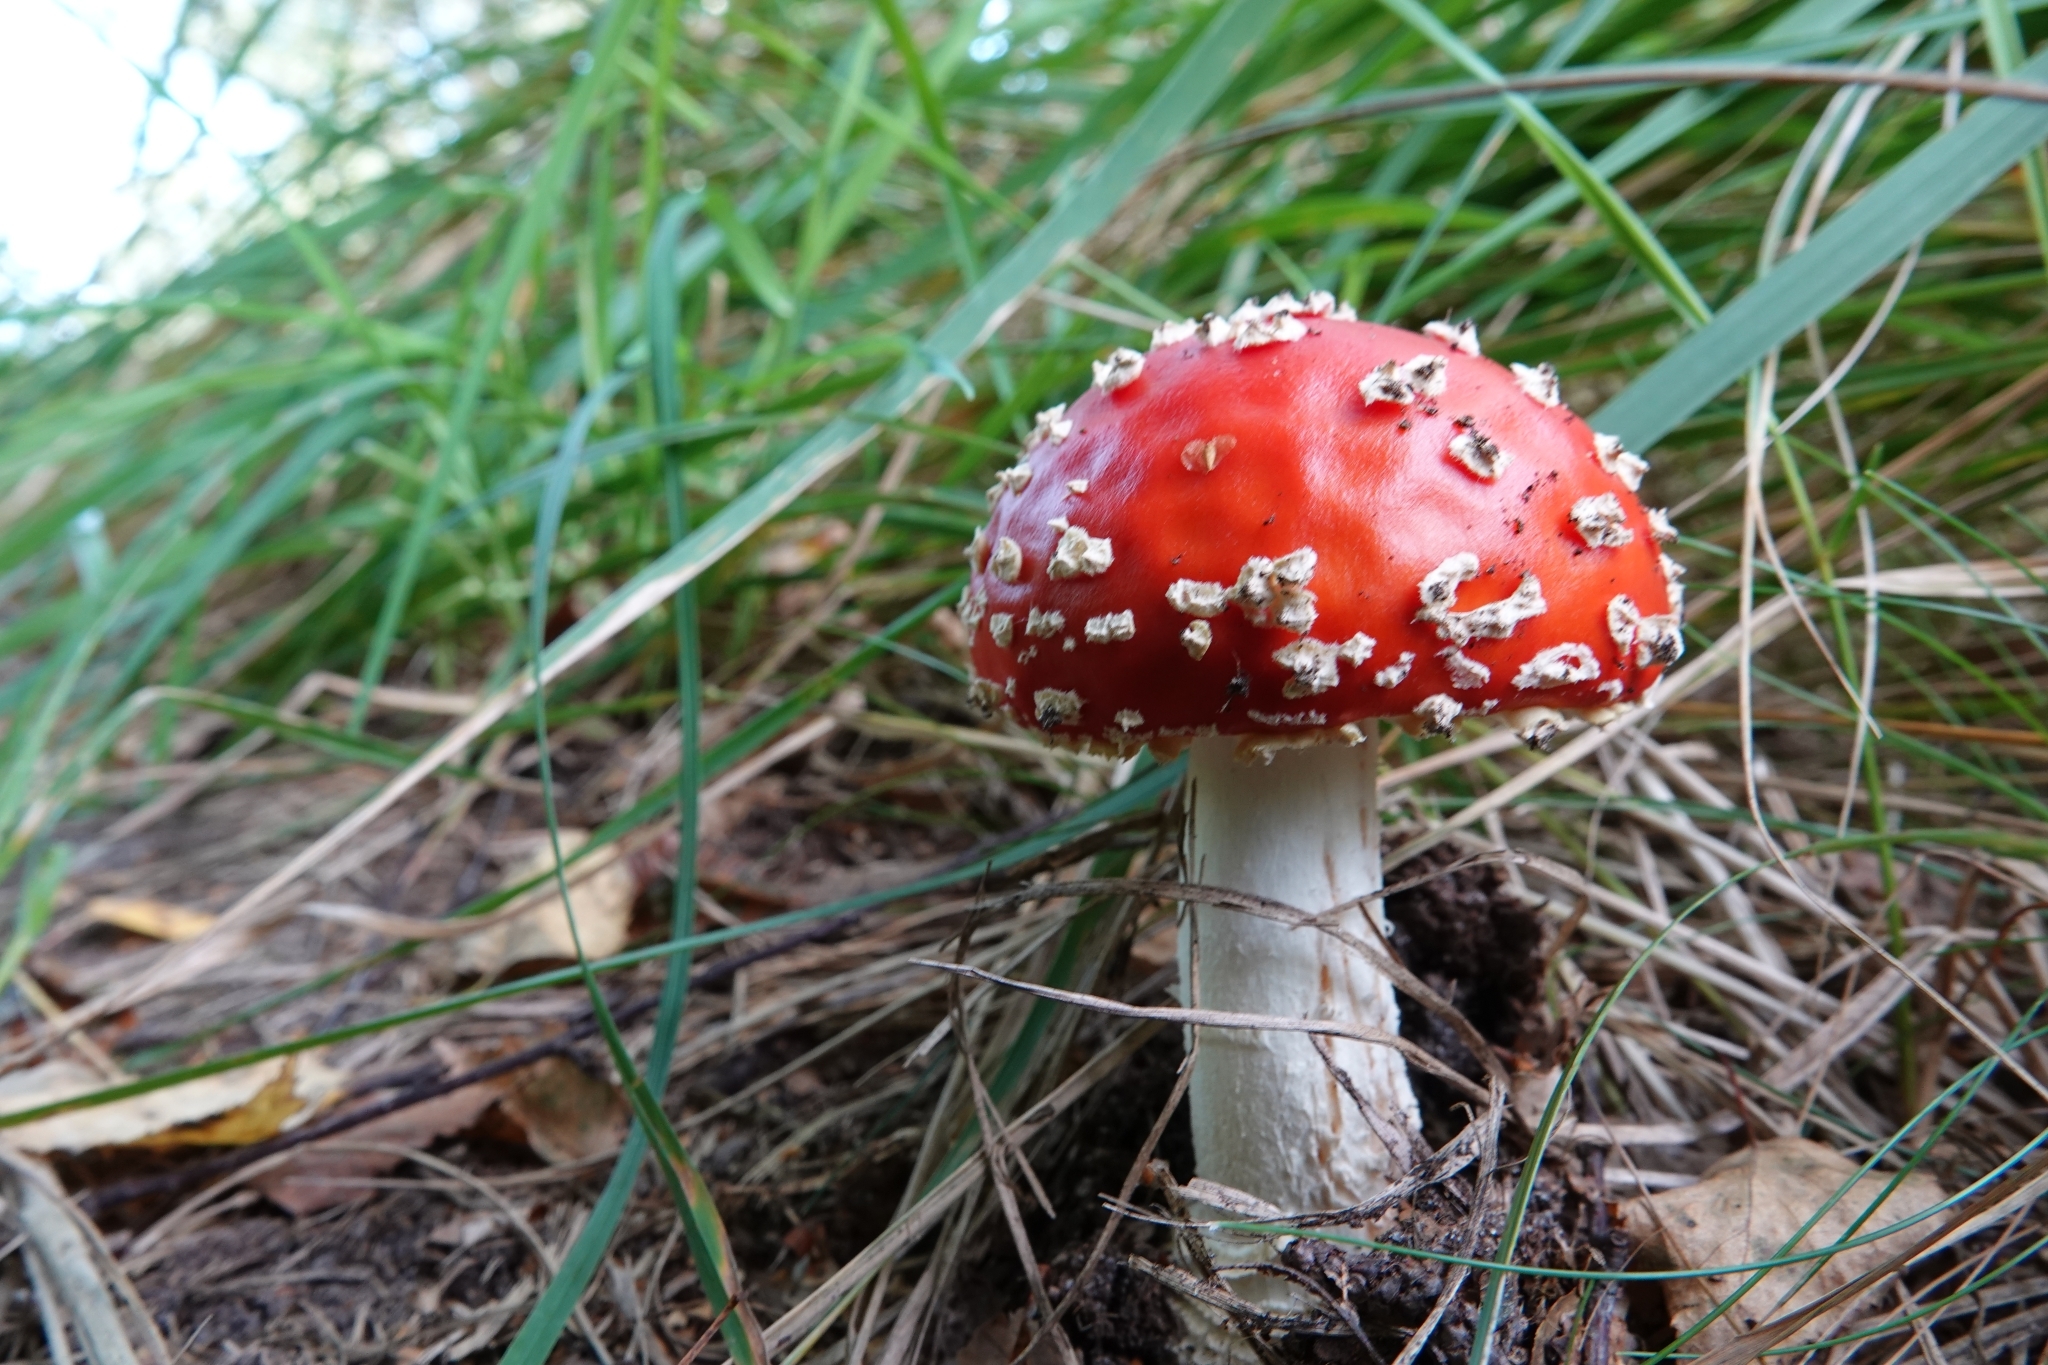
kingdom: Fungi
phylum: Basidiomycota
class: Agaricomycetes
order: Agaricales
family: Amanitaceae
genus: Amanita
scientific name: Amanita muscaria
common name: Fly agaric
